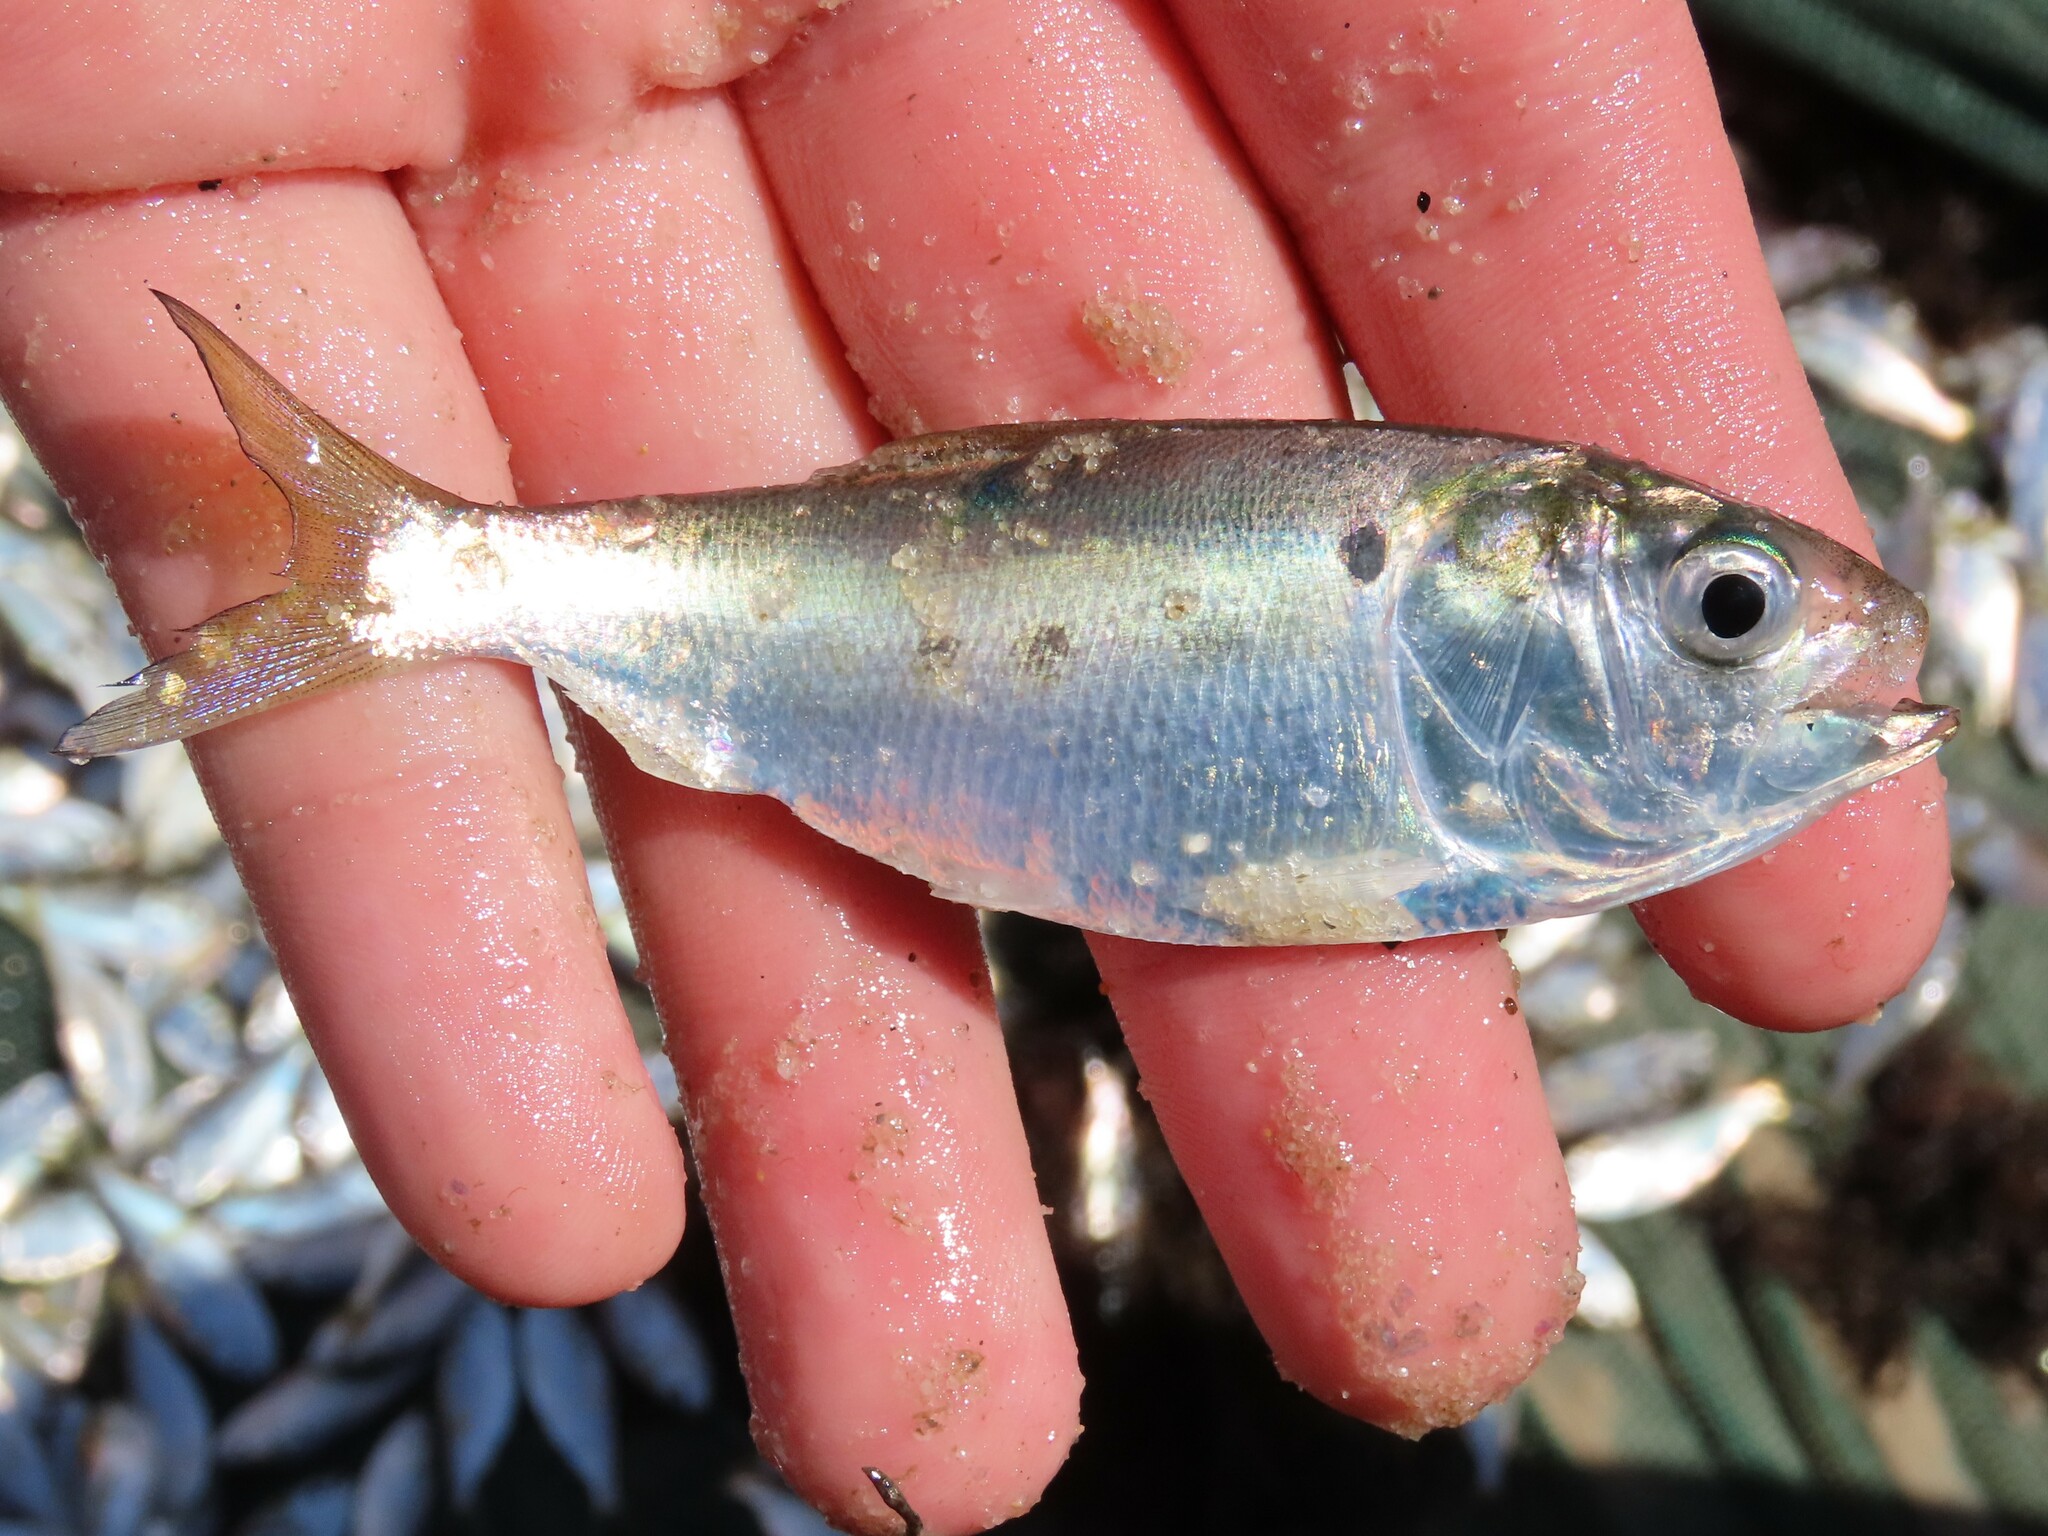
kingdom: Animalia
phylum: Chordata
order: Clupeiformes
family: Clupeidae
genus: Brevoortia
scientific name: Brevoortia tyrannus
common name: Atlantic menhaden
